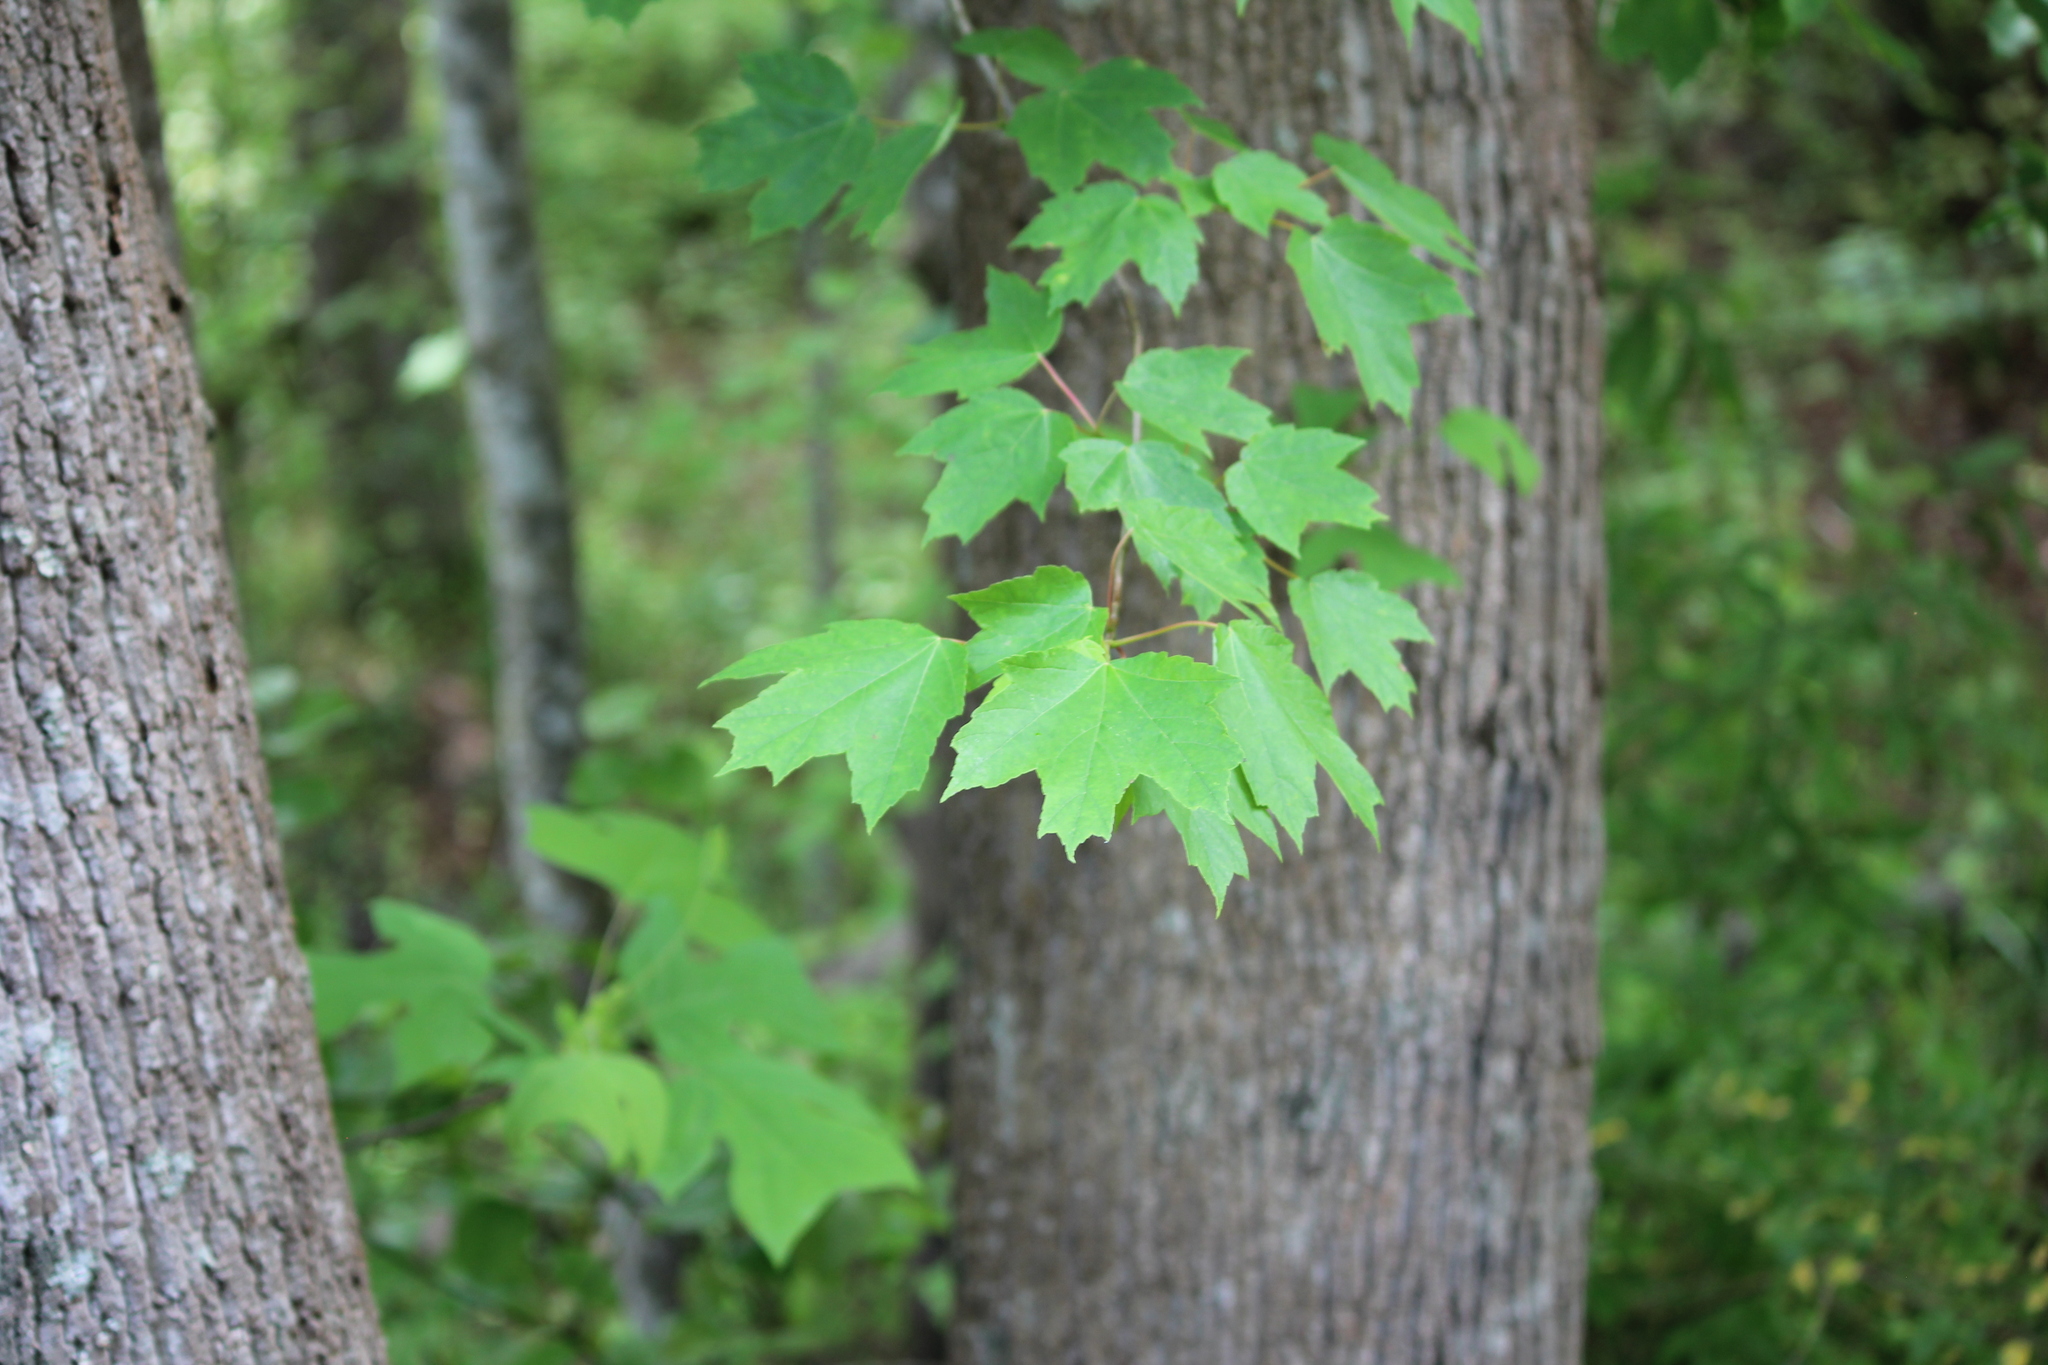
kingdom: Plantae
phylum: Tracheophyta
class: Magnoliopsida
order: Sapindales
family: Sapindaceae
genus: Acer
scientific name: Acer floridanum
